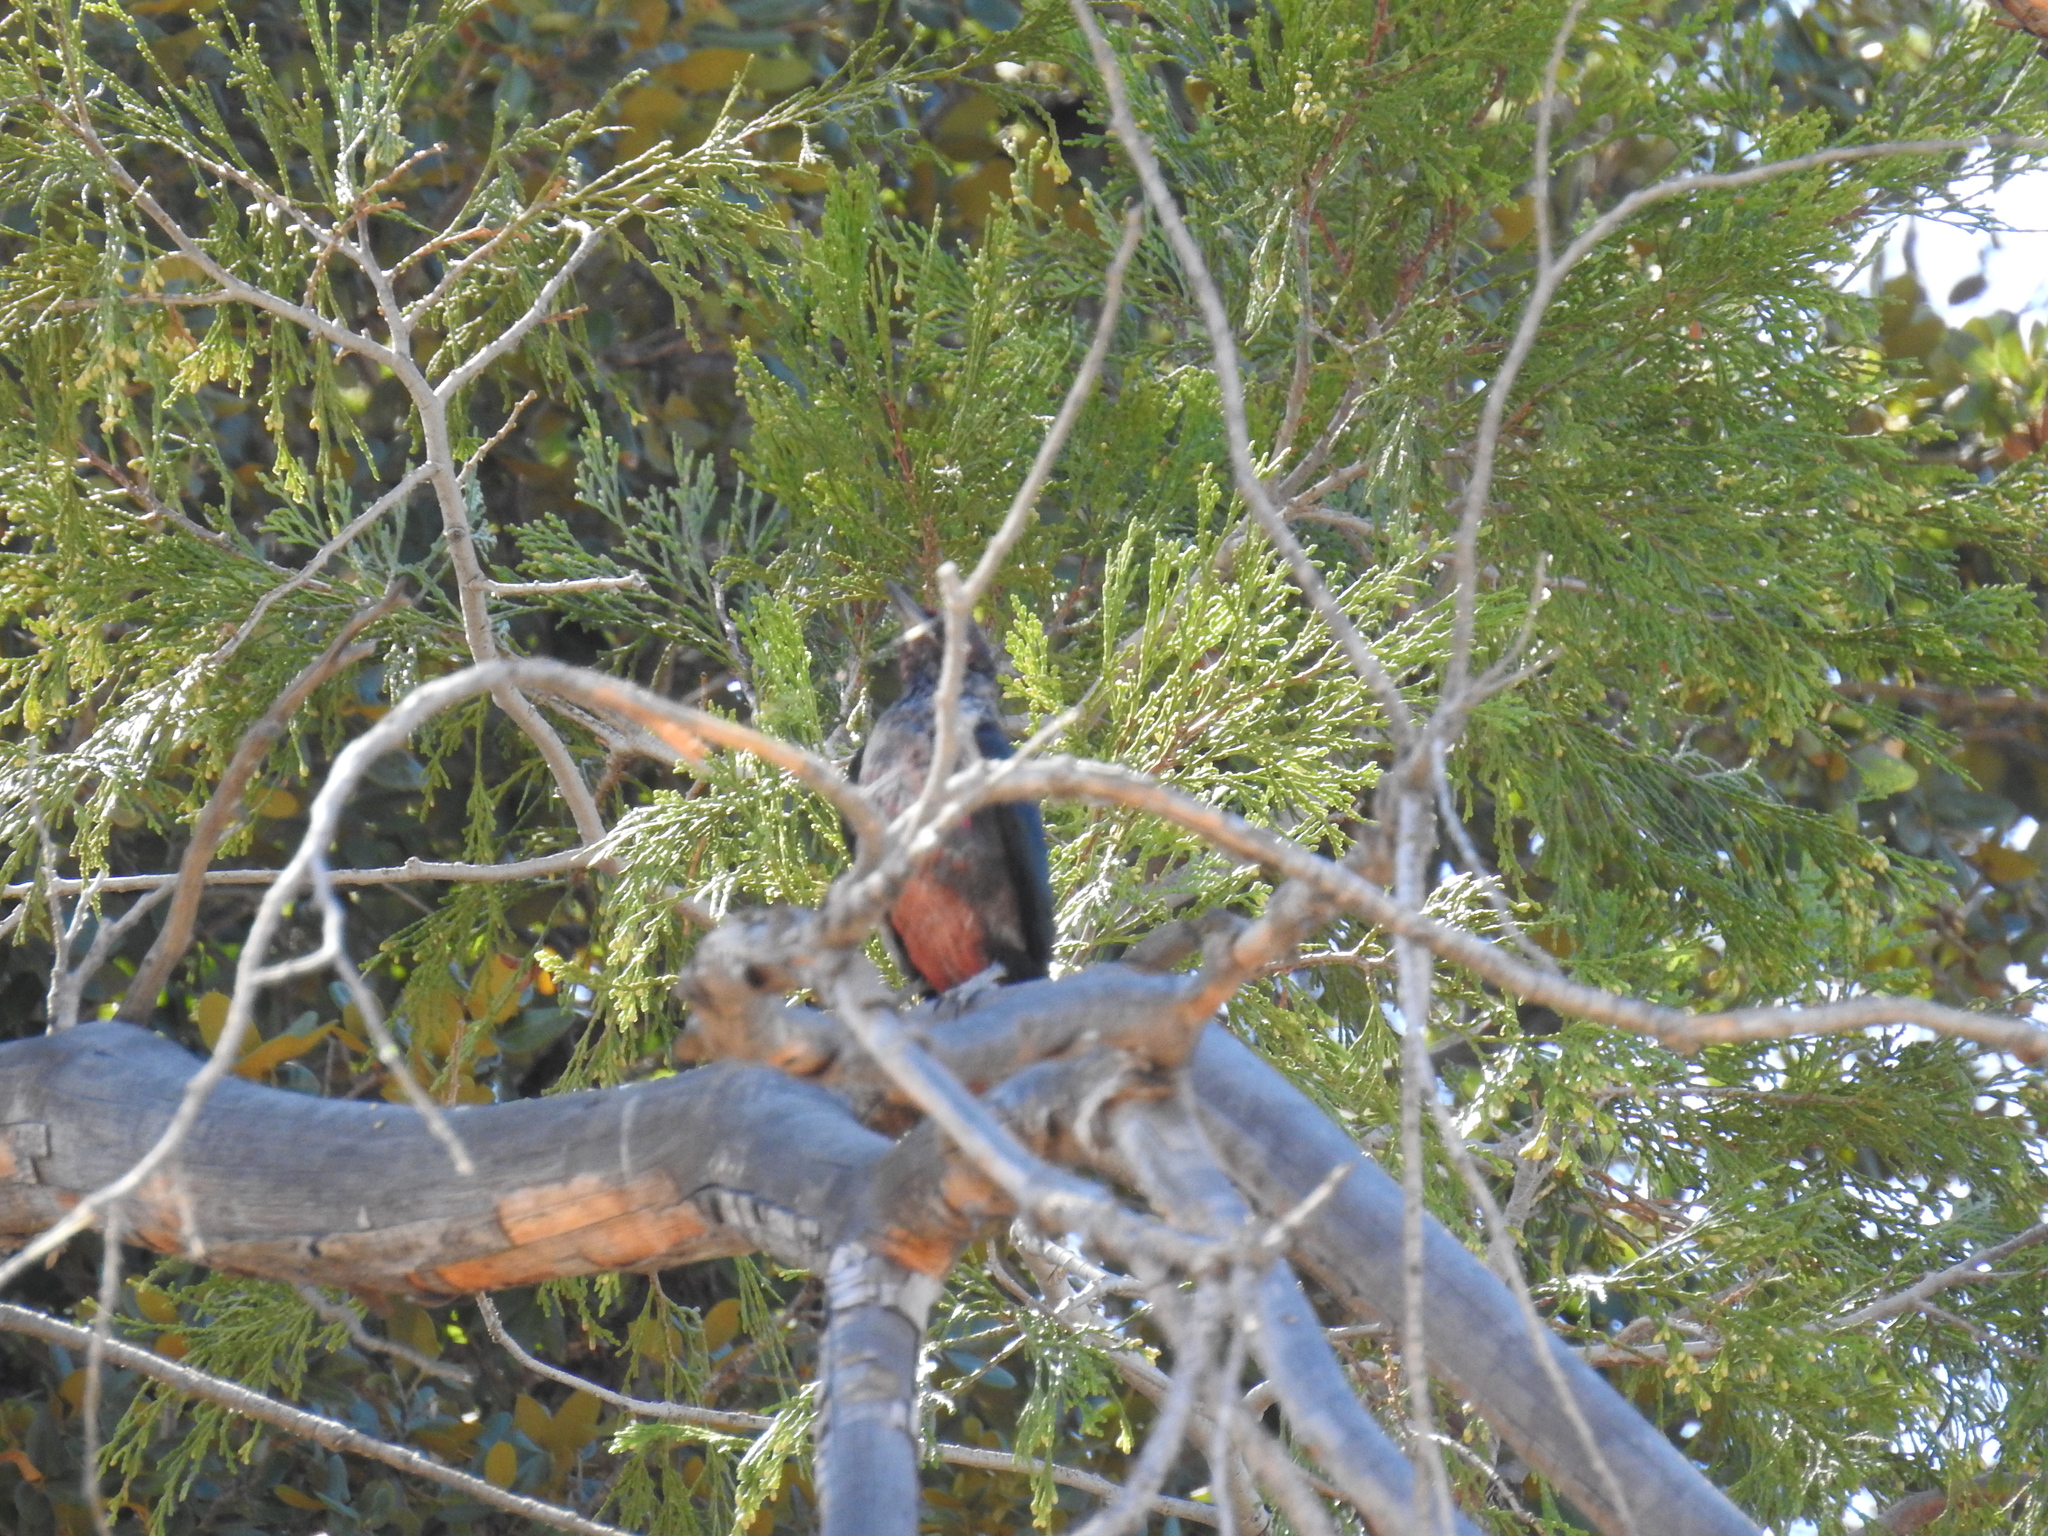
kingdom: Animalia
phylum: Chordata
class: Aves
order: Piciformes
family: Picidae
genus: Melanerpes
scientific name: Melanerpes lewis
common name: Lewis's woodpecker
